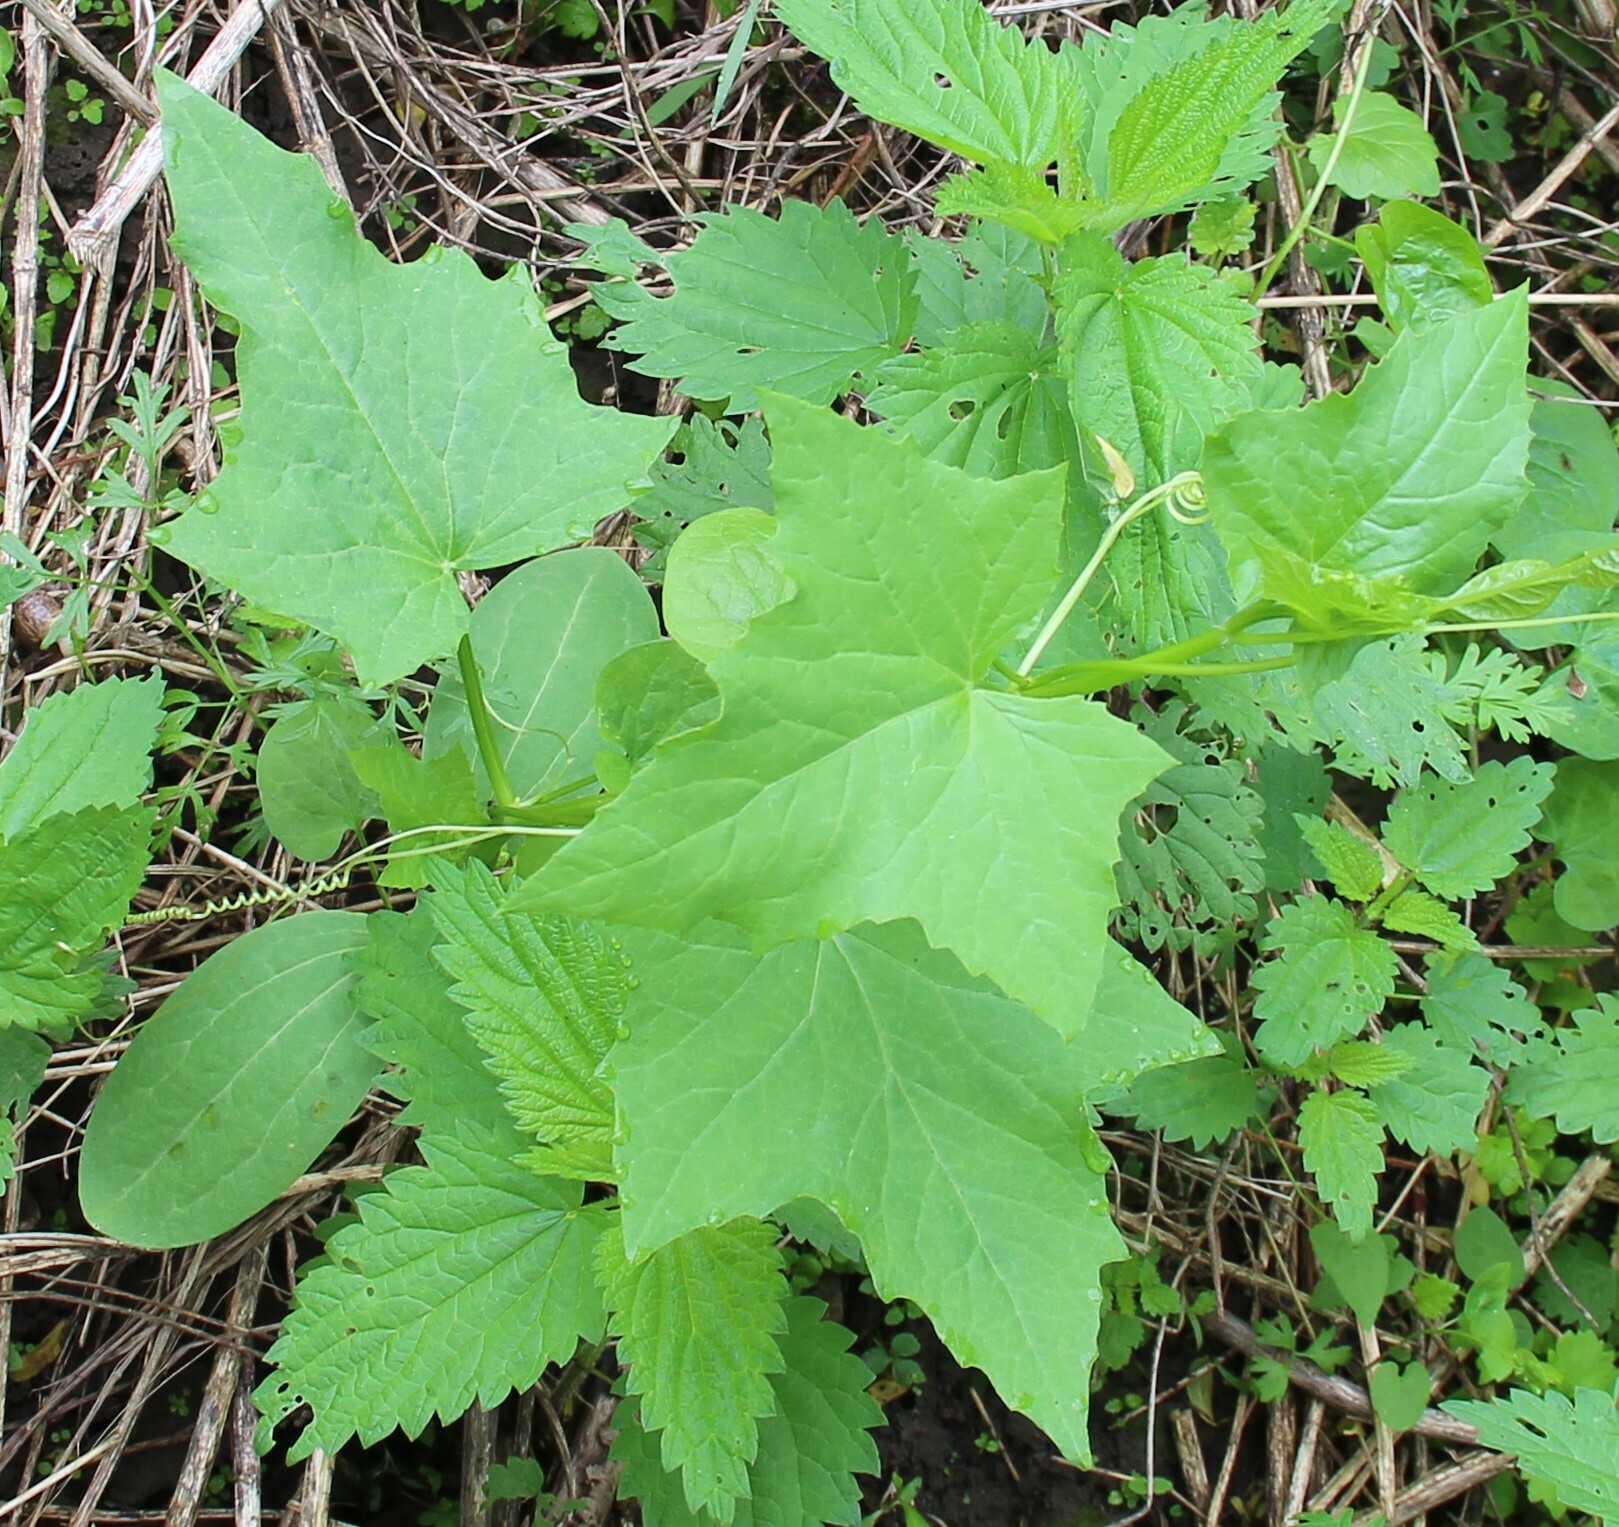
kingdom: Plantae
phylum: Tracheophyta
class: Magnoliopsida
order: Cucurbitales
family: Cucurbitaceae
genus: Echinocystis
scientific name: Echinocystis lobata
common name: Wild cucumber
